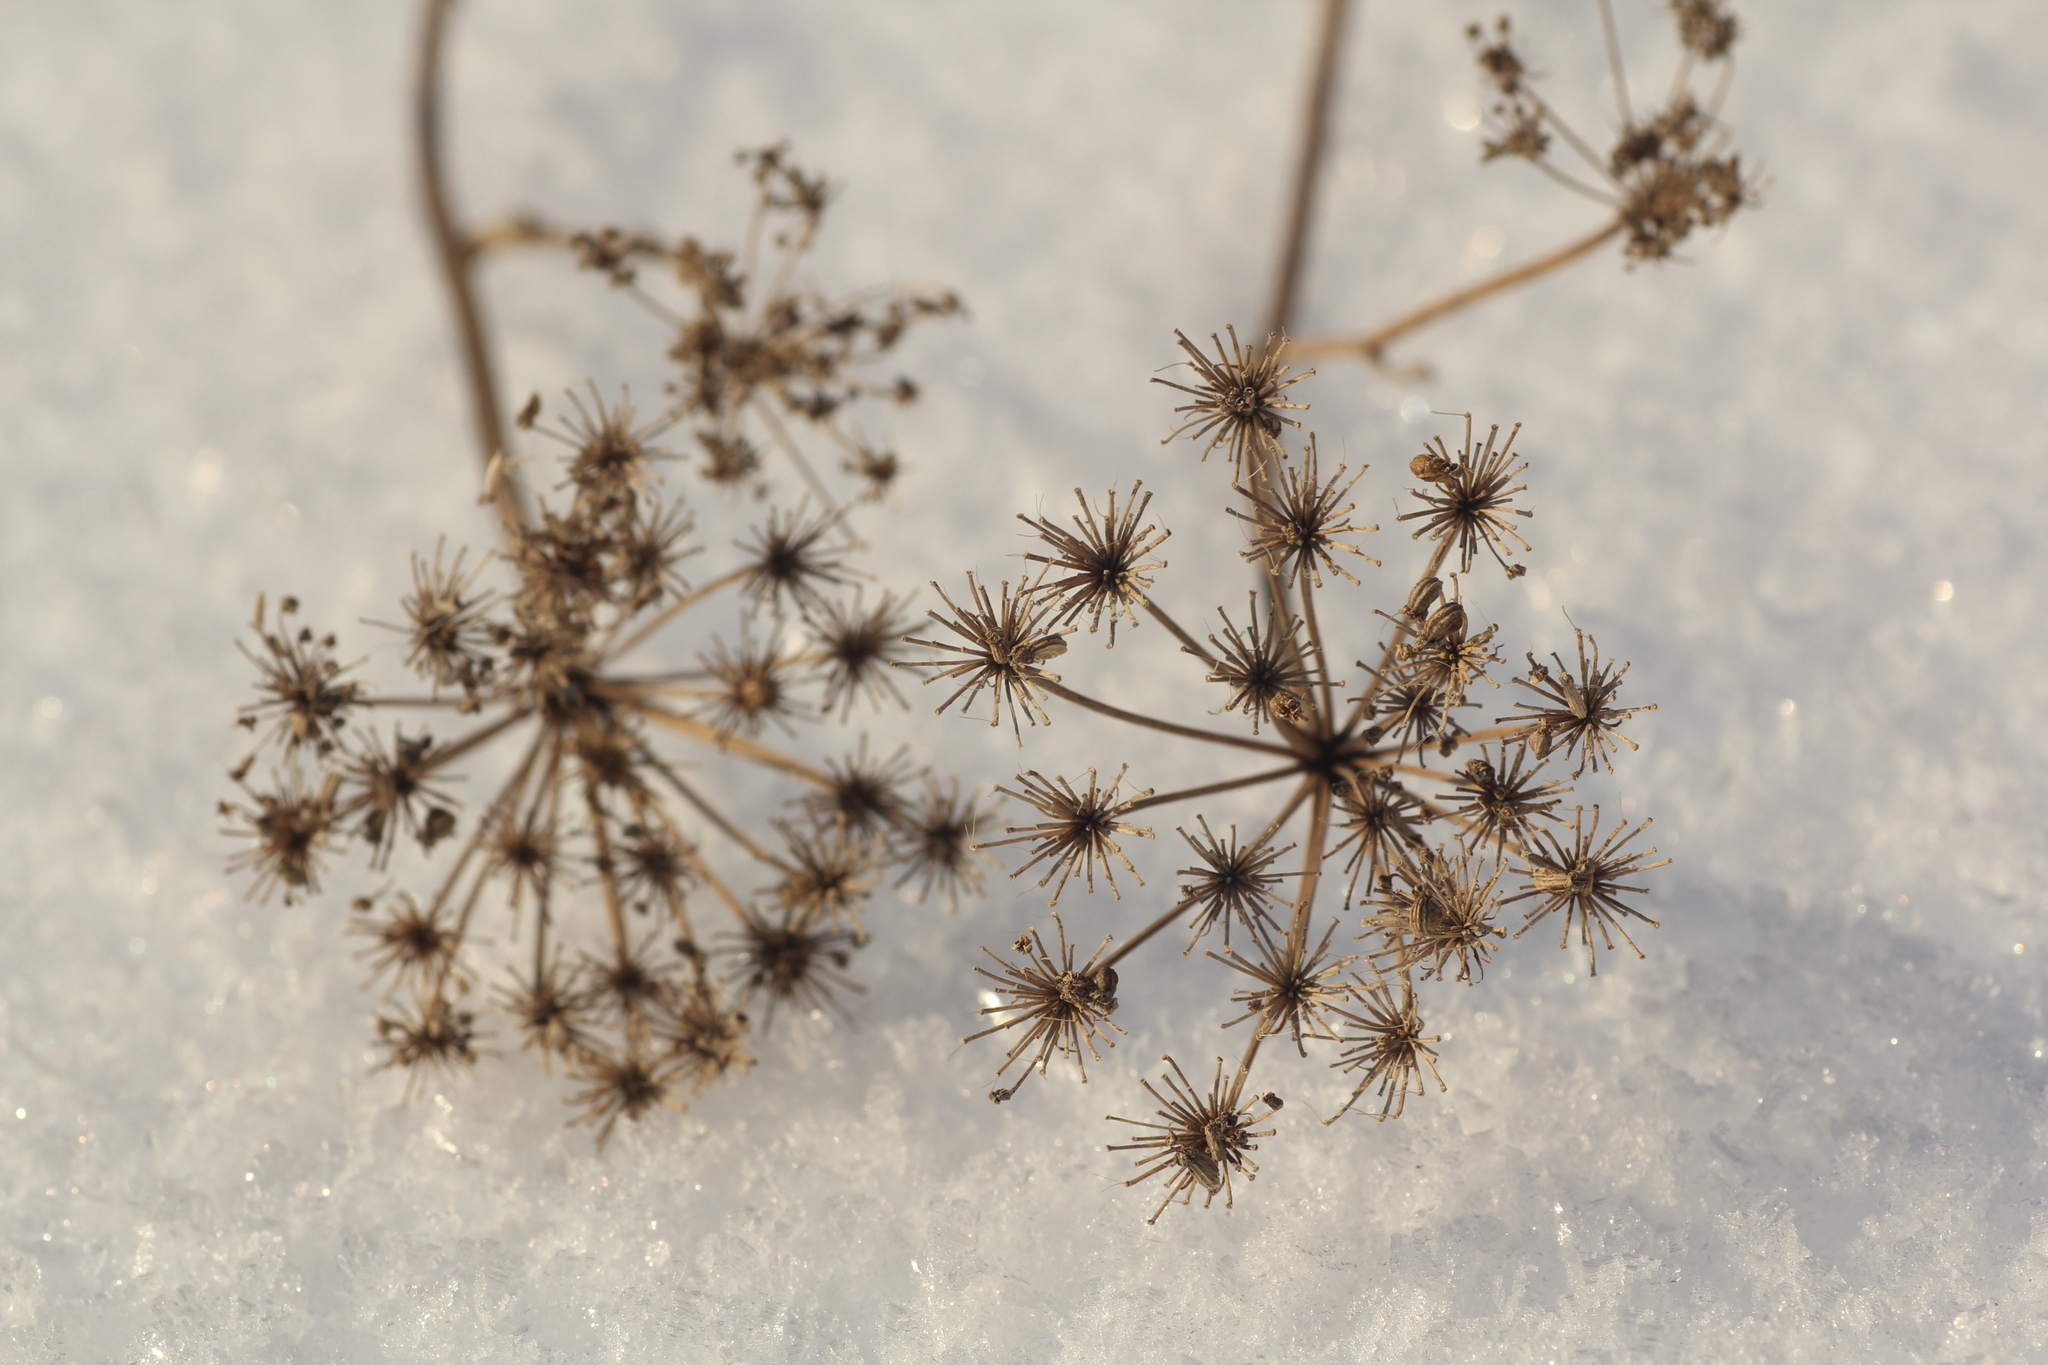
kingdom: Plantae
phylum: Tracheophyta
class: Magnoliopsida
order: Apiales
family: Apiaceae
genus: Pleurospermum
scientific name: Pleurospermum uralense
